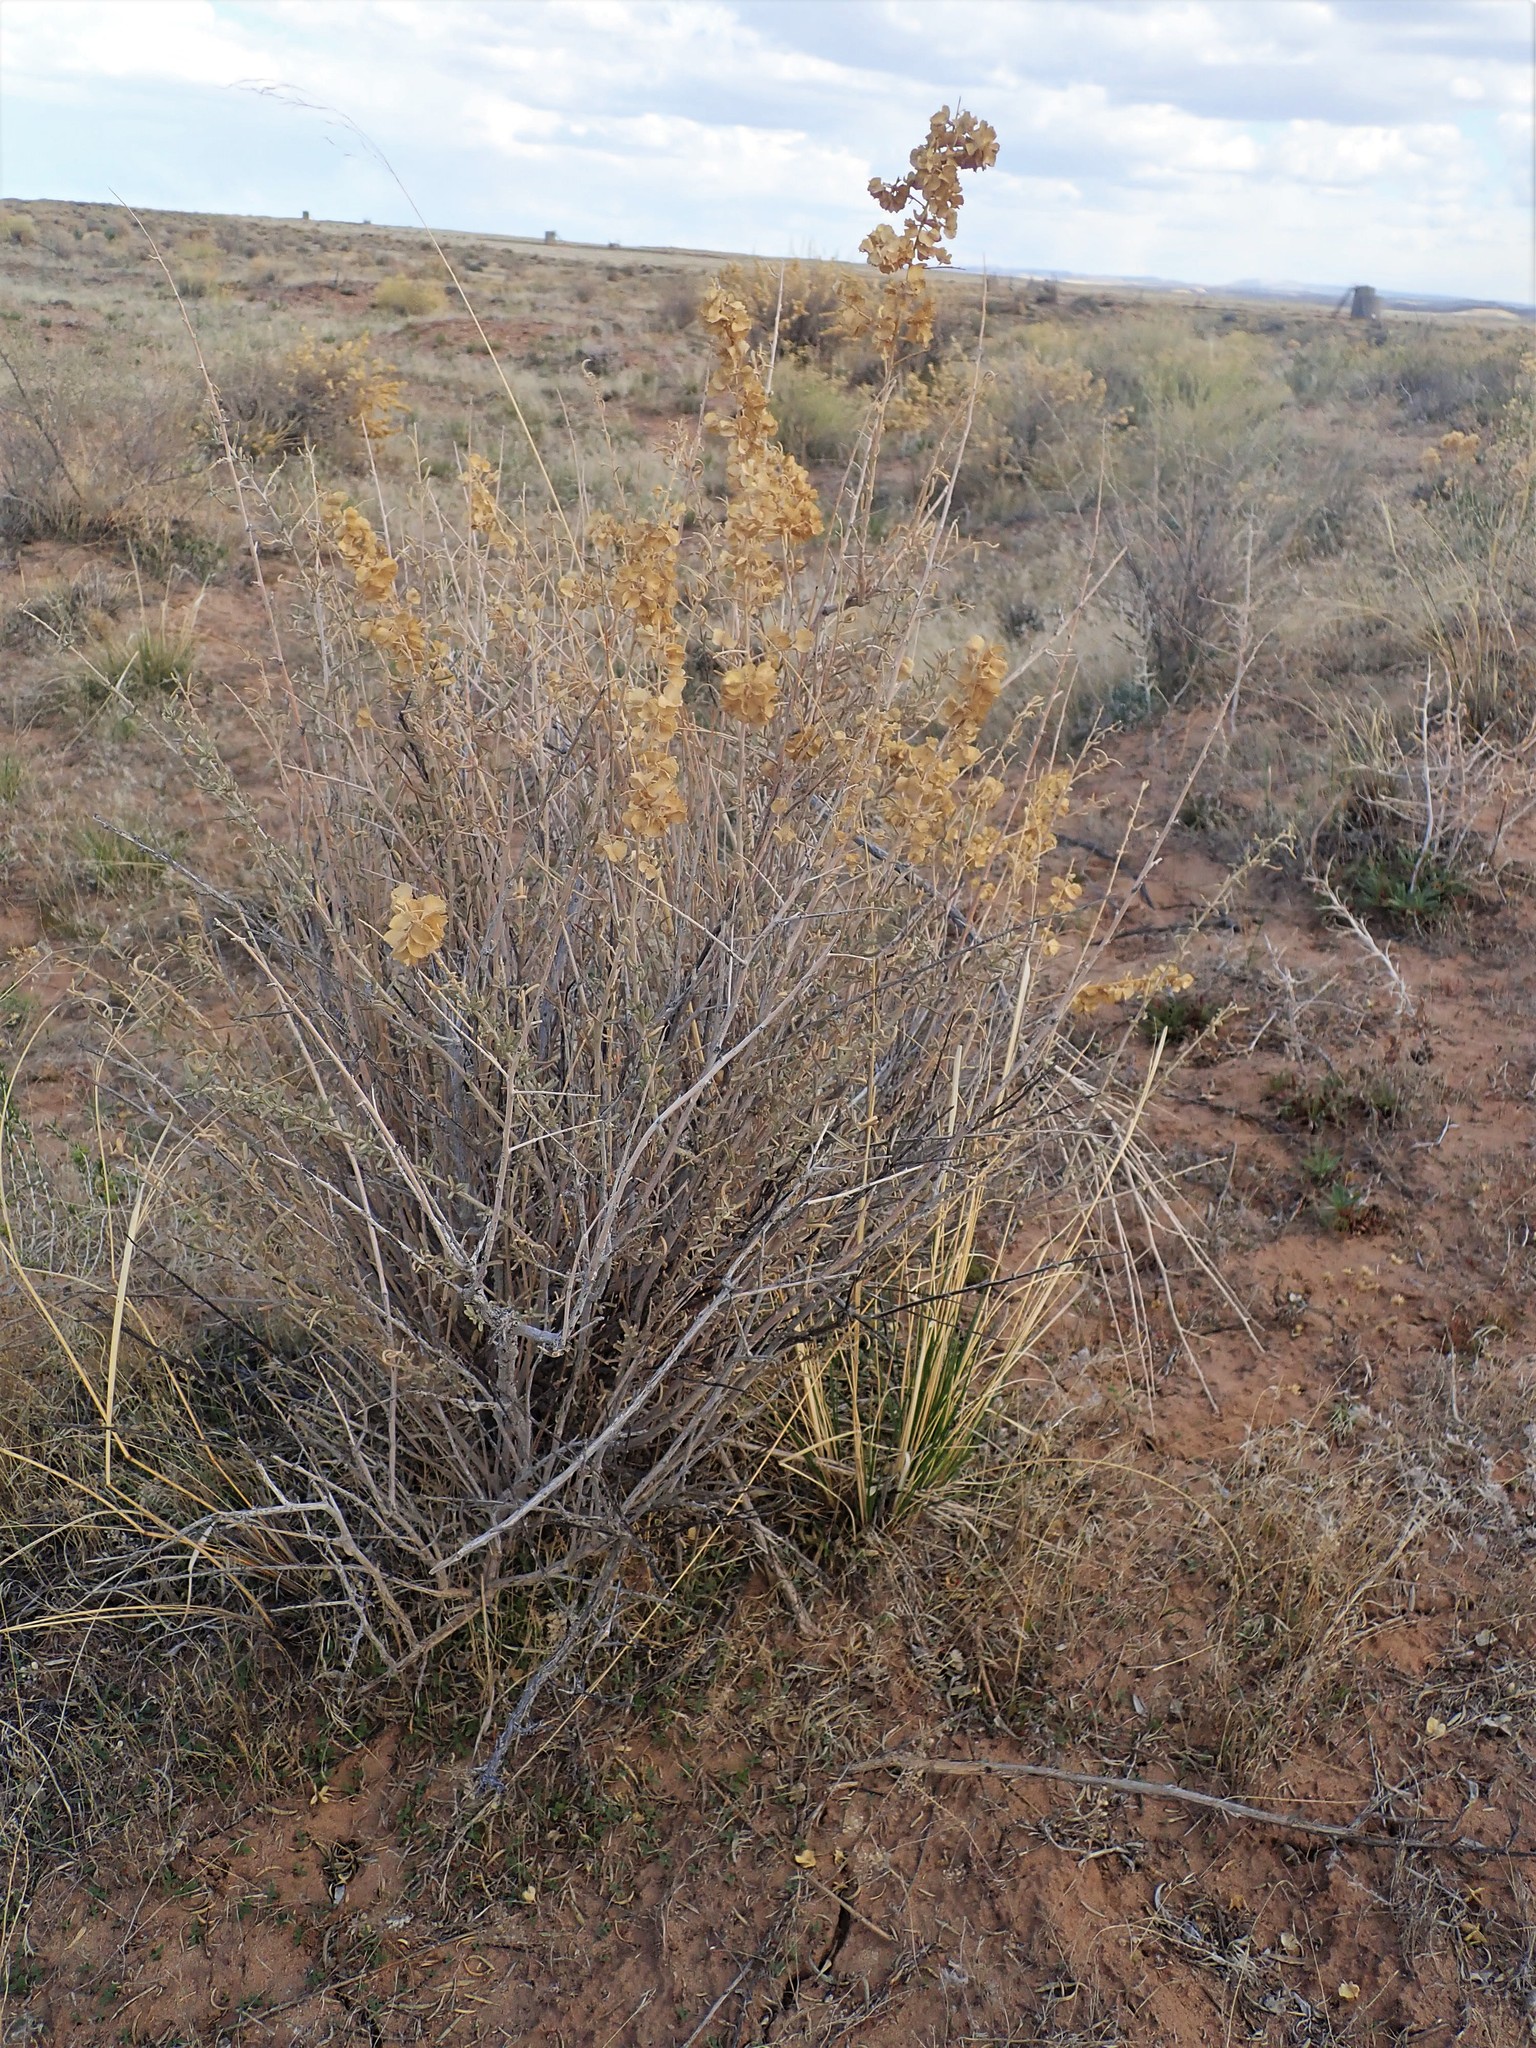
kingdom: Plantae
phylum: Tracheophyta
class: Magnoliopsida
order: Caryophyllales
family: Amaranthaceae
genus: Atriplex
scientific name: Atriplex canescens
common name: Four-wing saltbush
